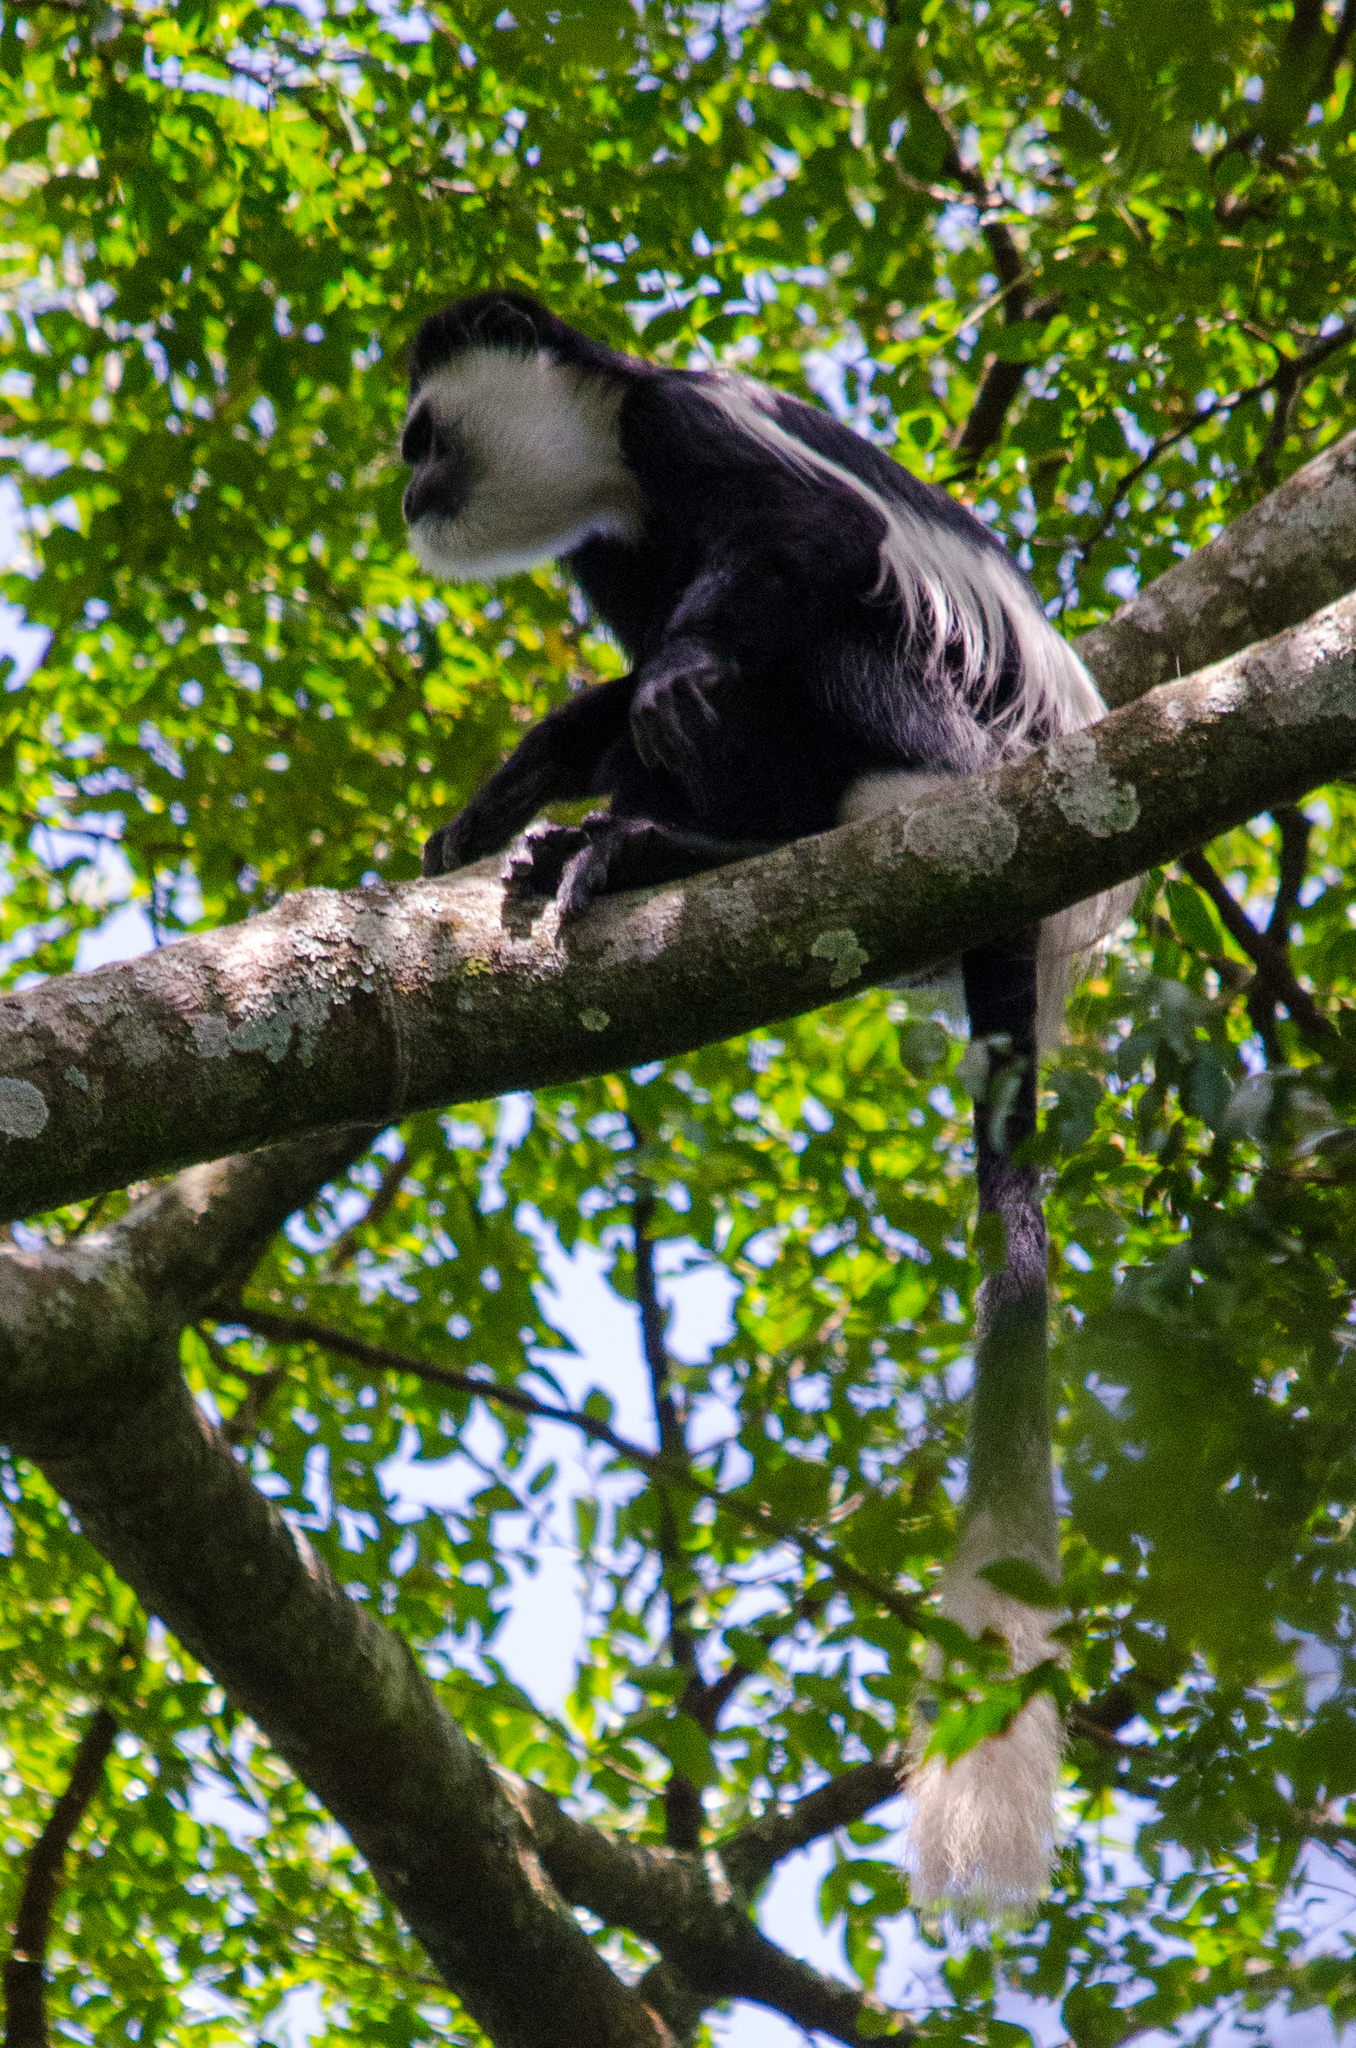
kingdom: Animalia
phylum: Chordata
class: Mammalia
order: Primates
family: Cercopithecidae
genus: Colobus
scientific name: Colobus guereza
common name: Mantled guereza
